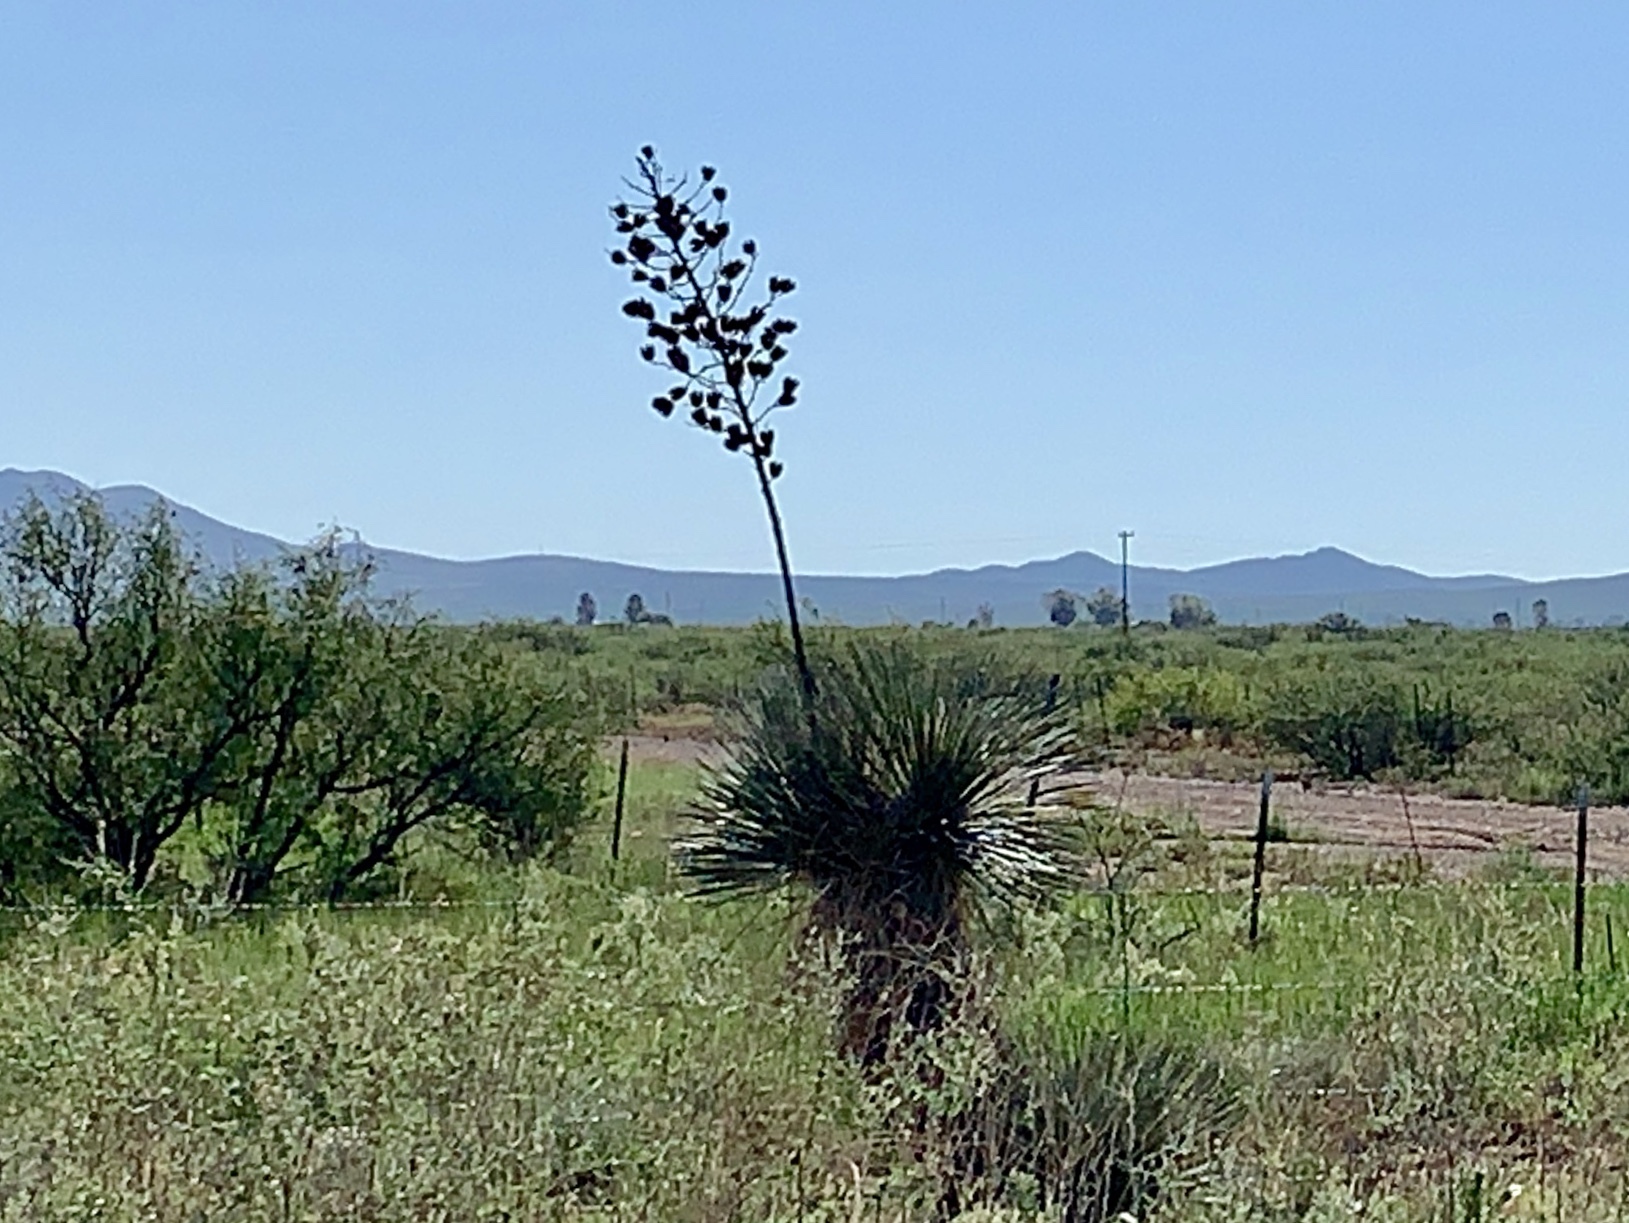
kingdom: Plantae
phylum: Tracheophyta
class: Liliopsida
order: Asparagales
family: Asparagaceae
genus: Yucca
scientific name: Yucca elata
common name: Palmella
